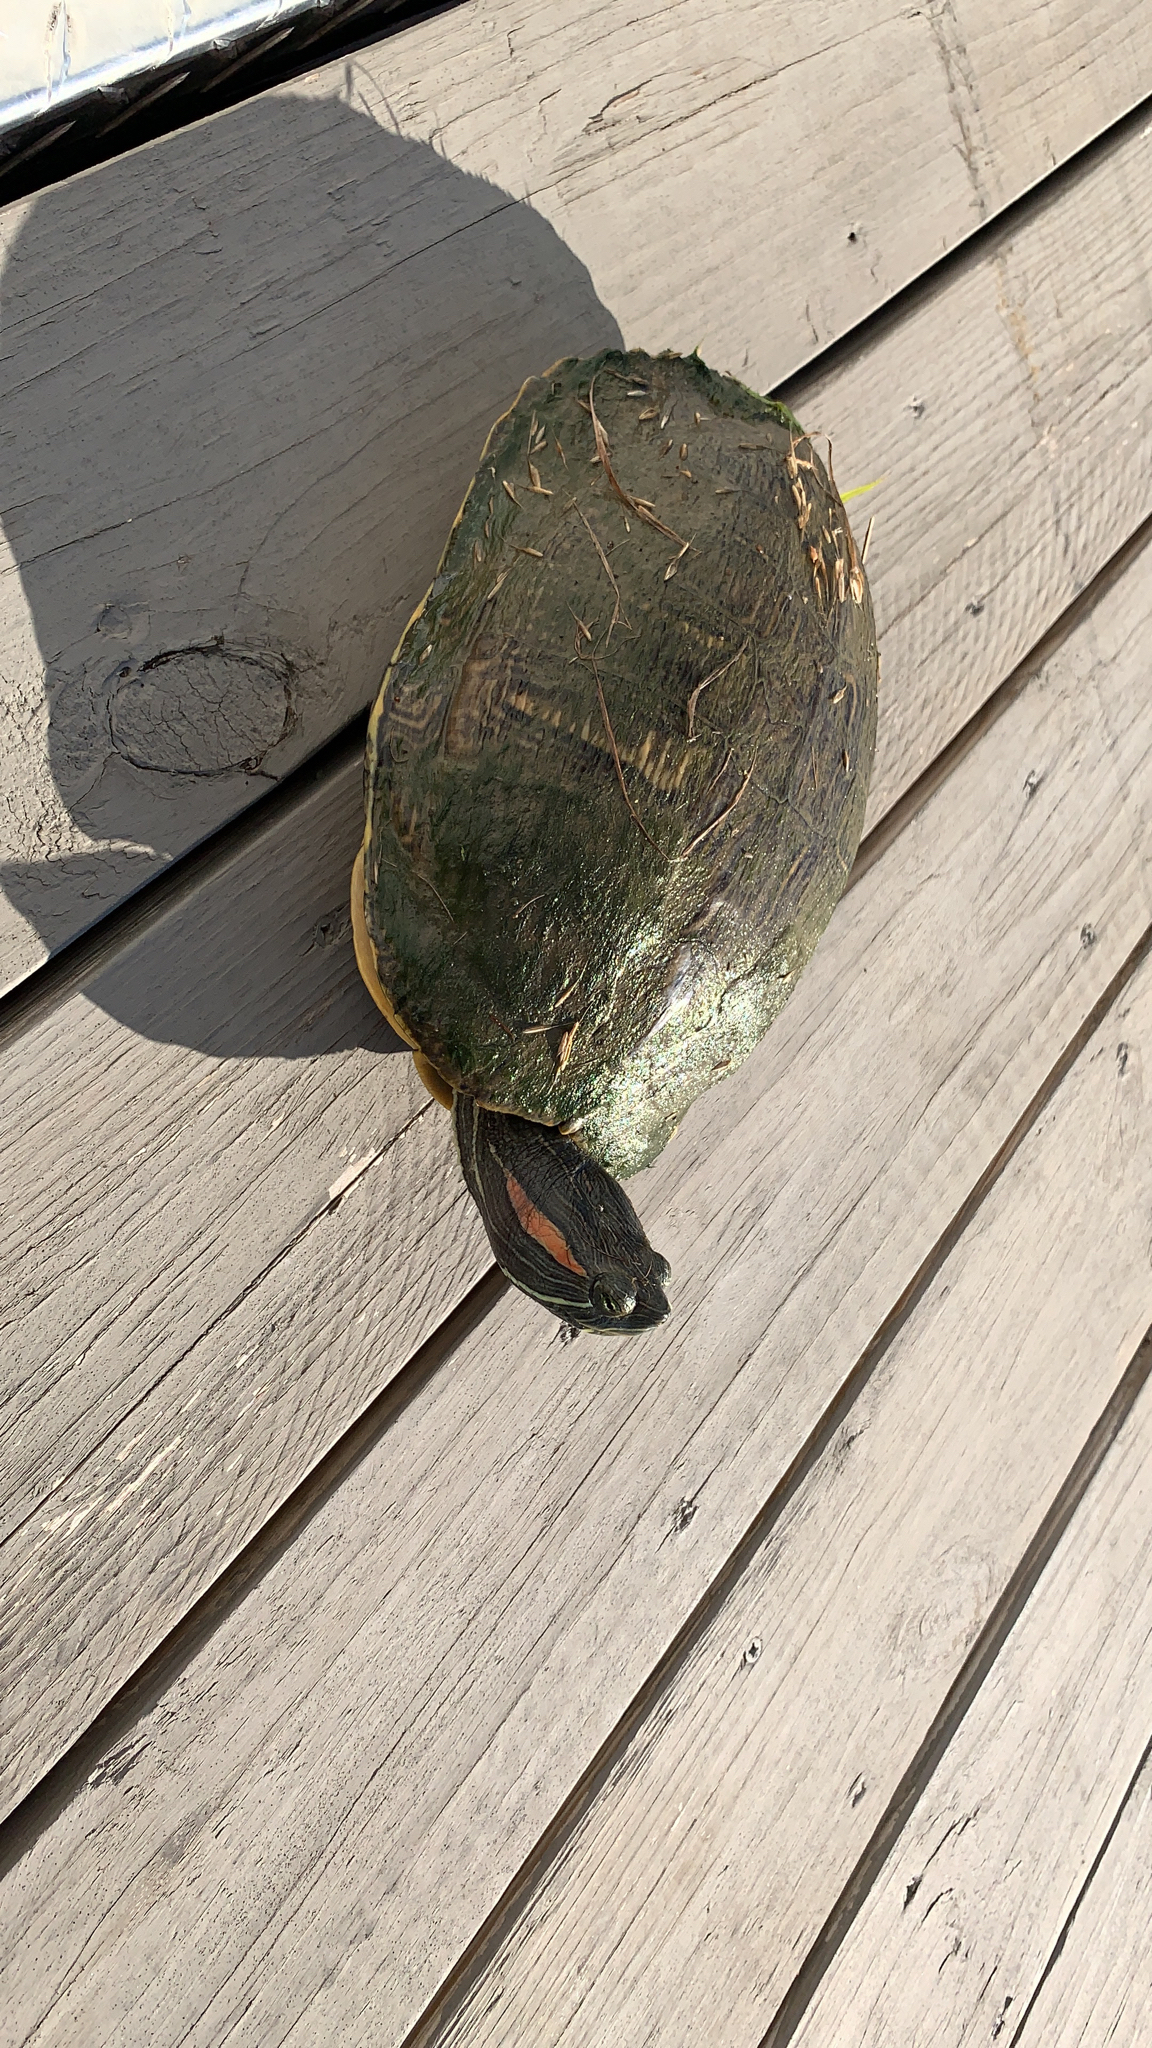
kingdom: Animalia
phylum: Chordata
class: Testudines
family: Emydidae
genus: Trachemys
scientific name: Trachemys scripta
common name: Slider
